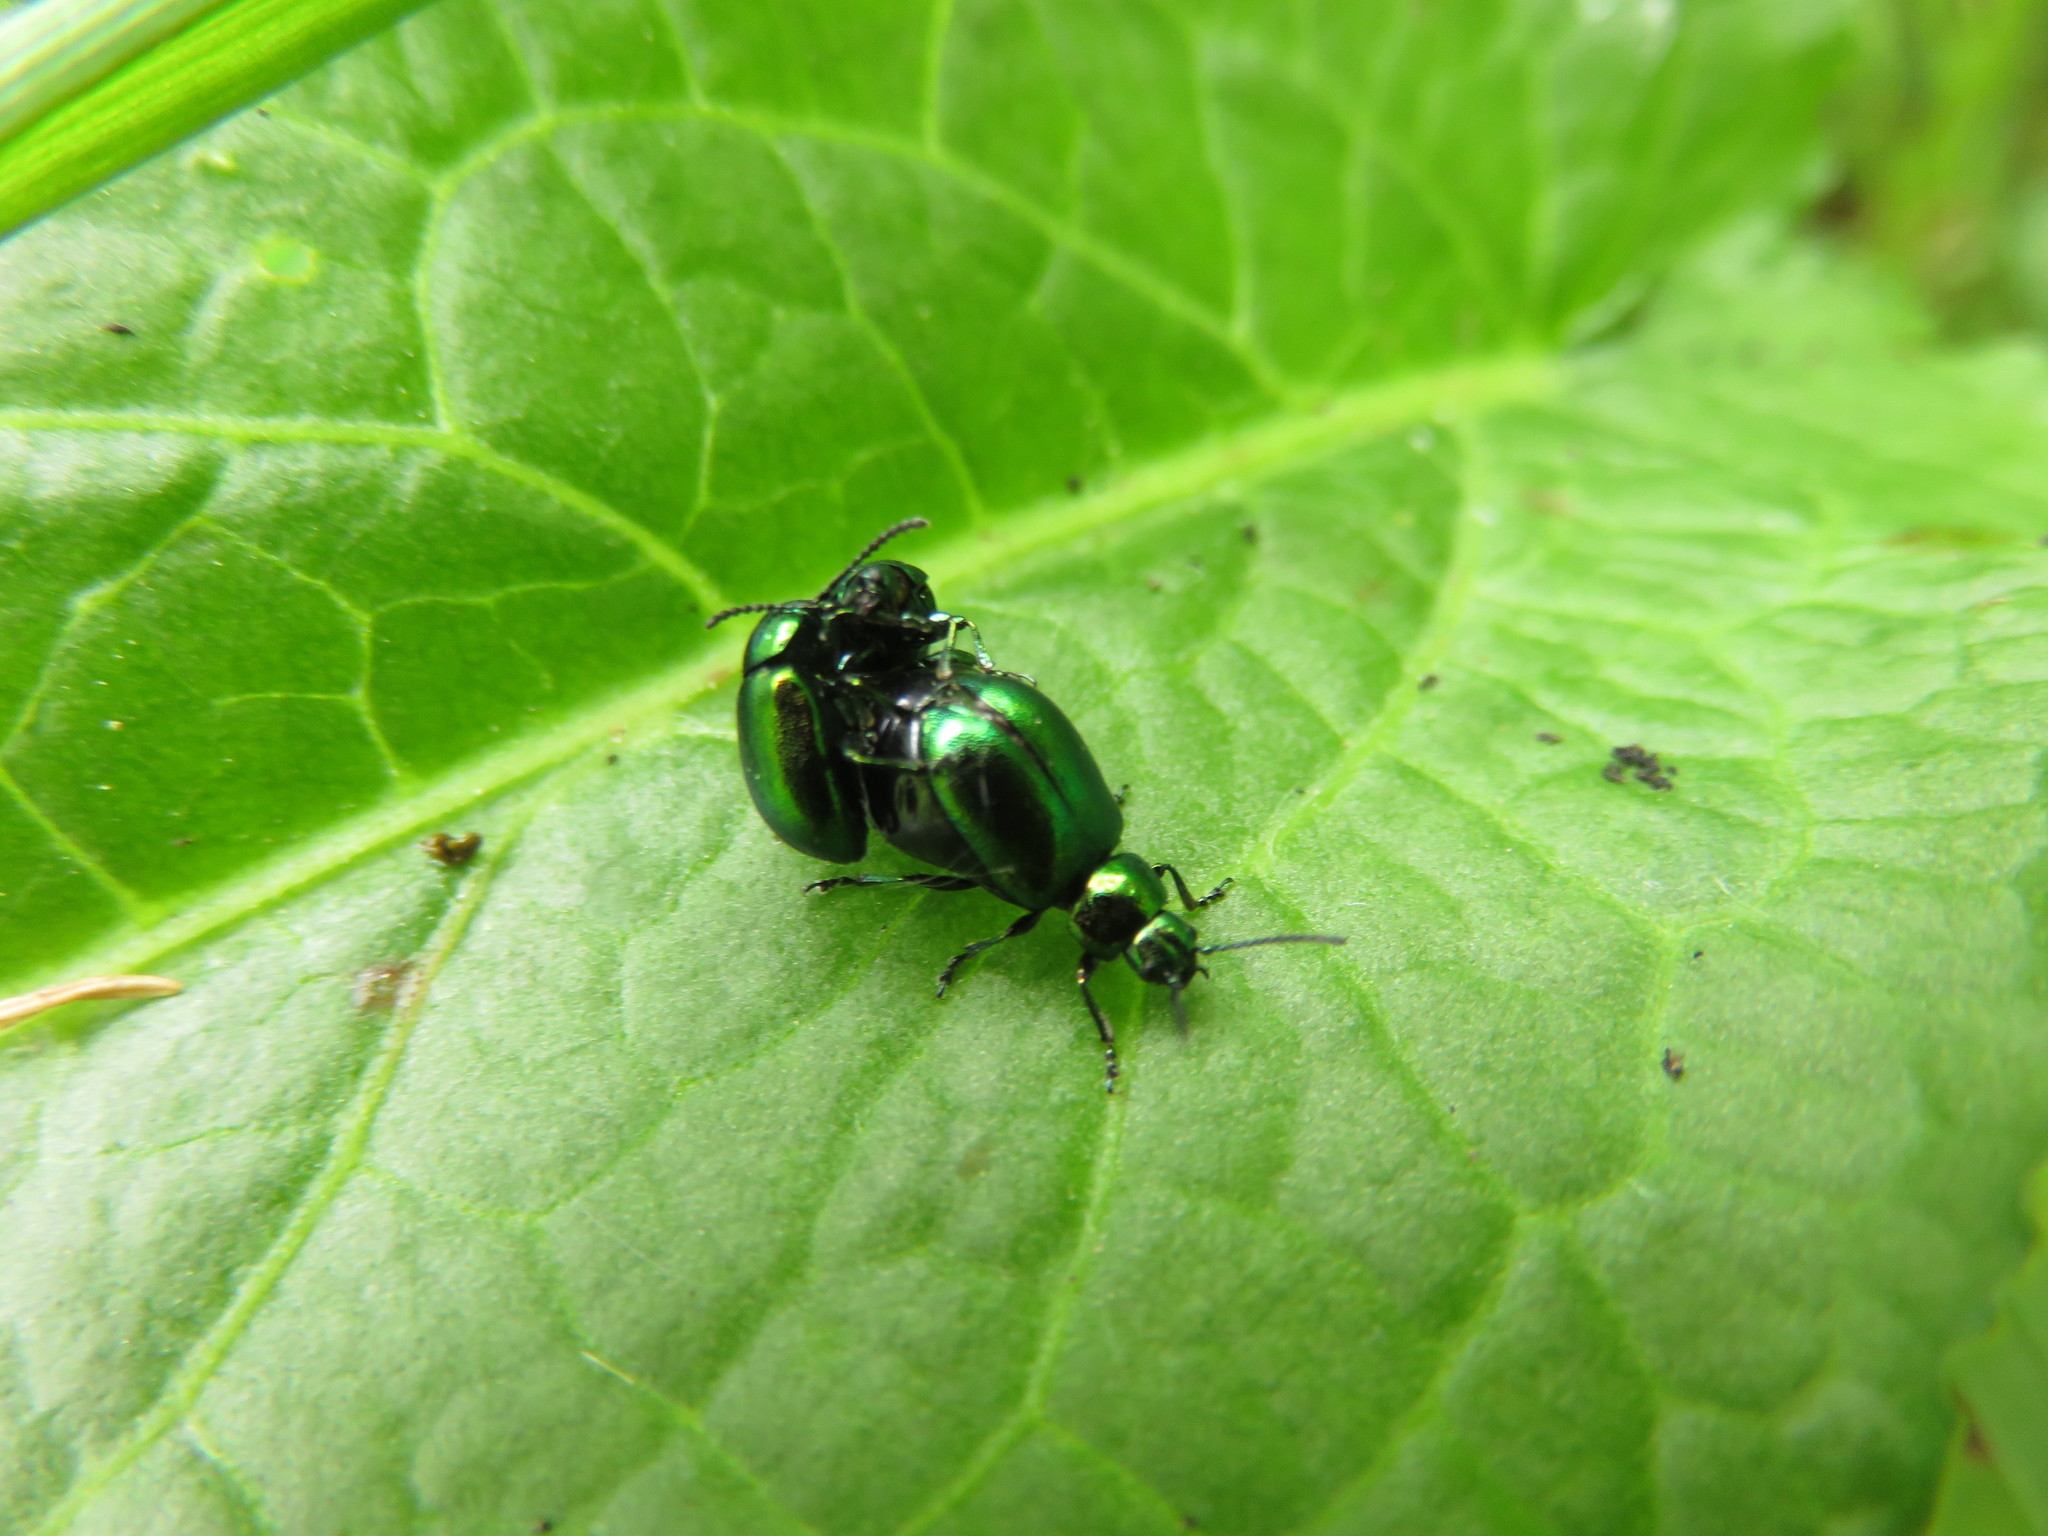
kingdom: Animalia
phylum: Arthropoda
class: Insecta
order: Coleoptera
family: Chrysomelidae
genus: Gastrophysa
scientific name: Gastrophysa viridula
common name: Green dock beetle
